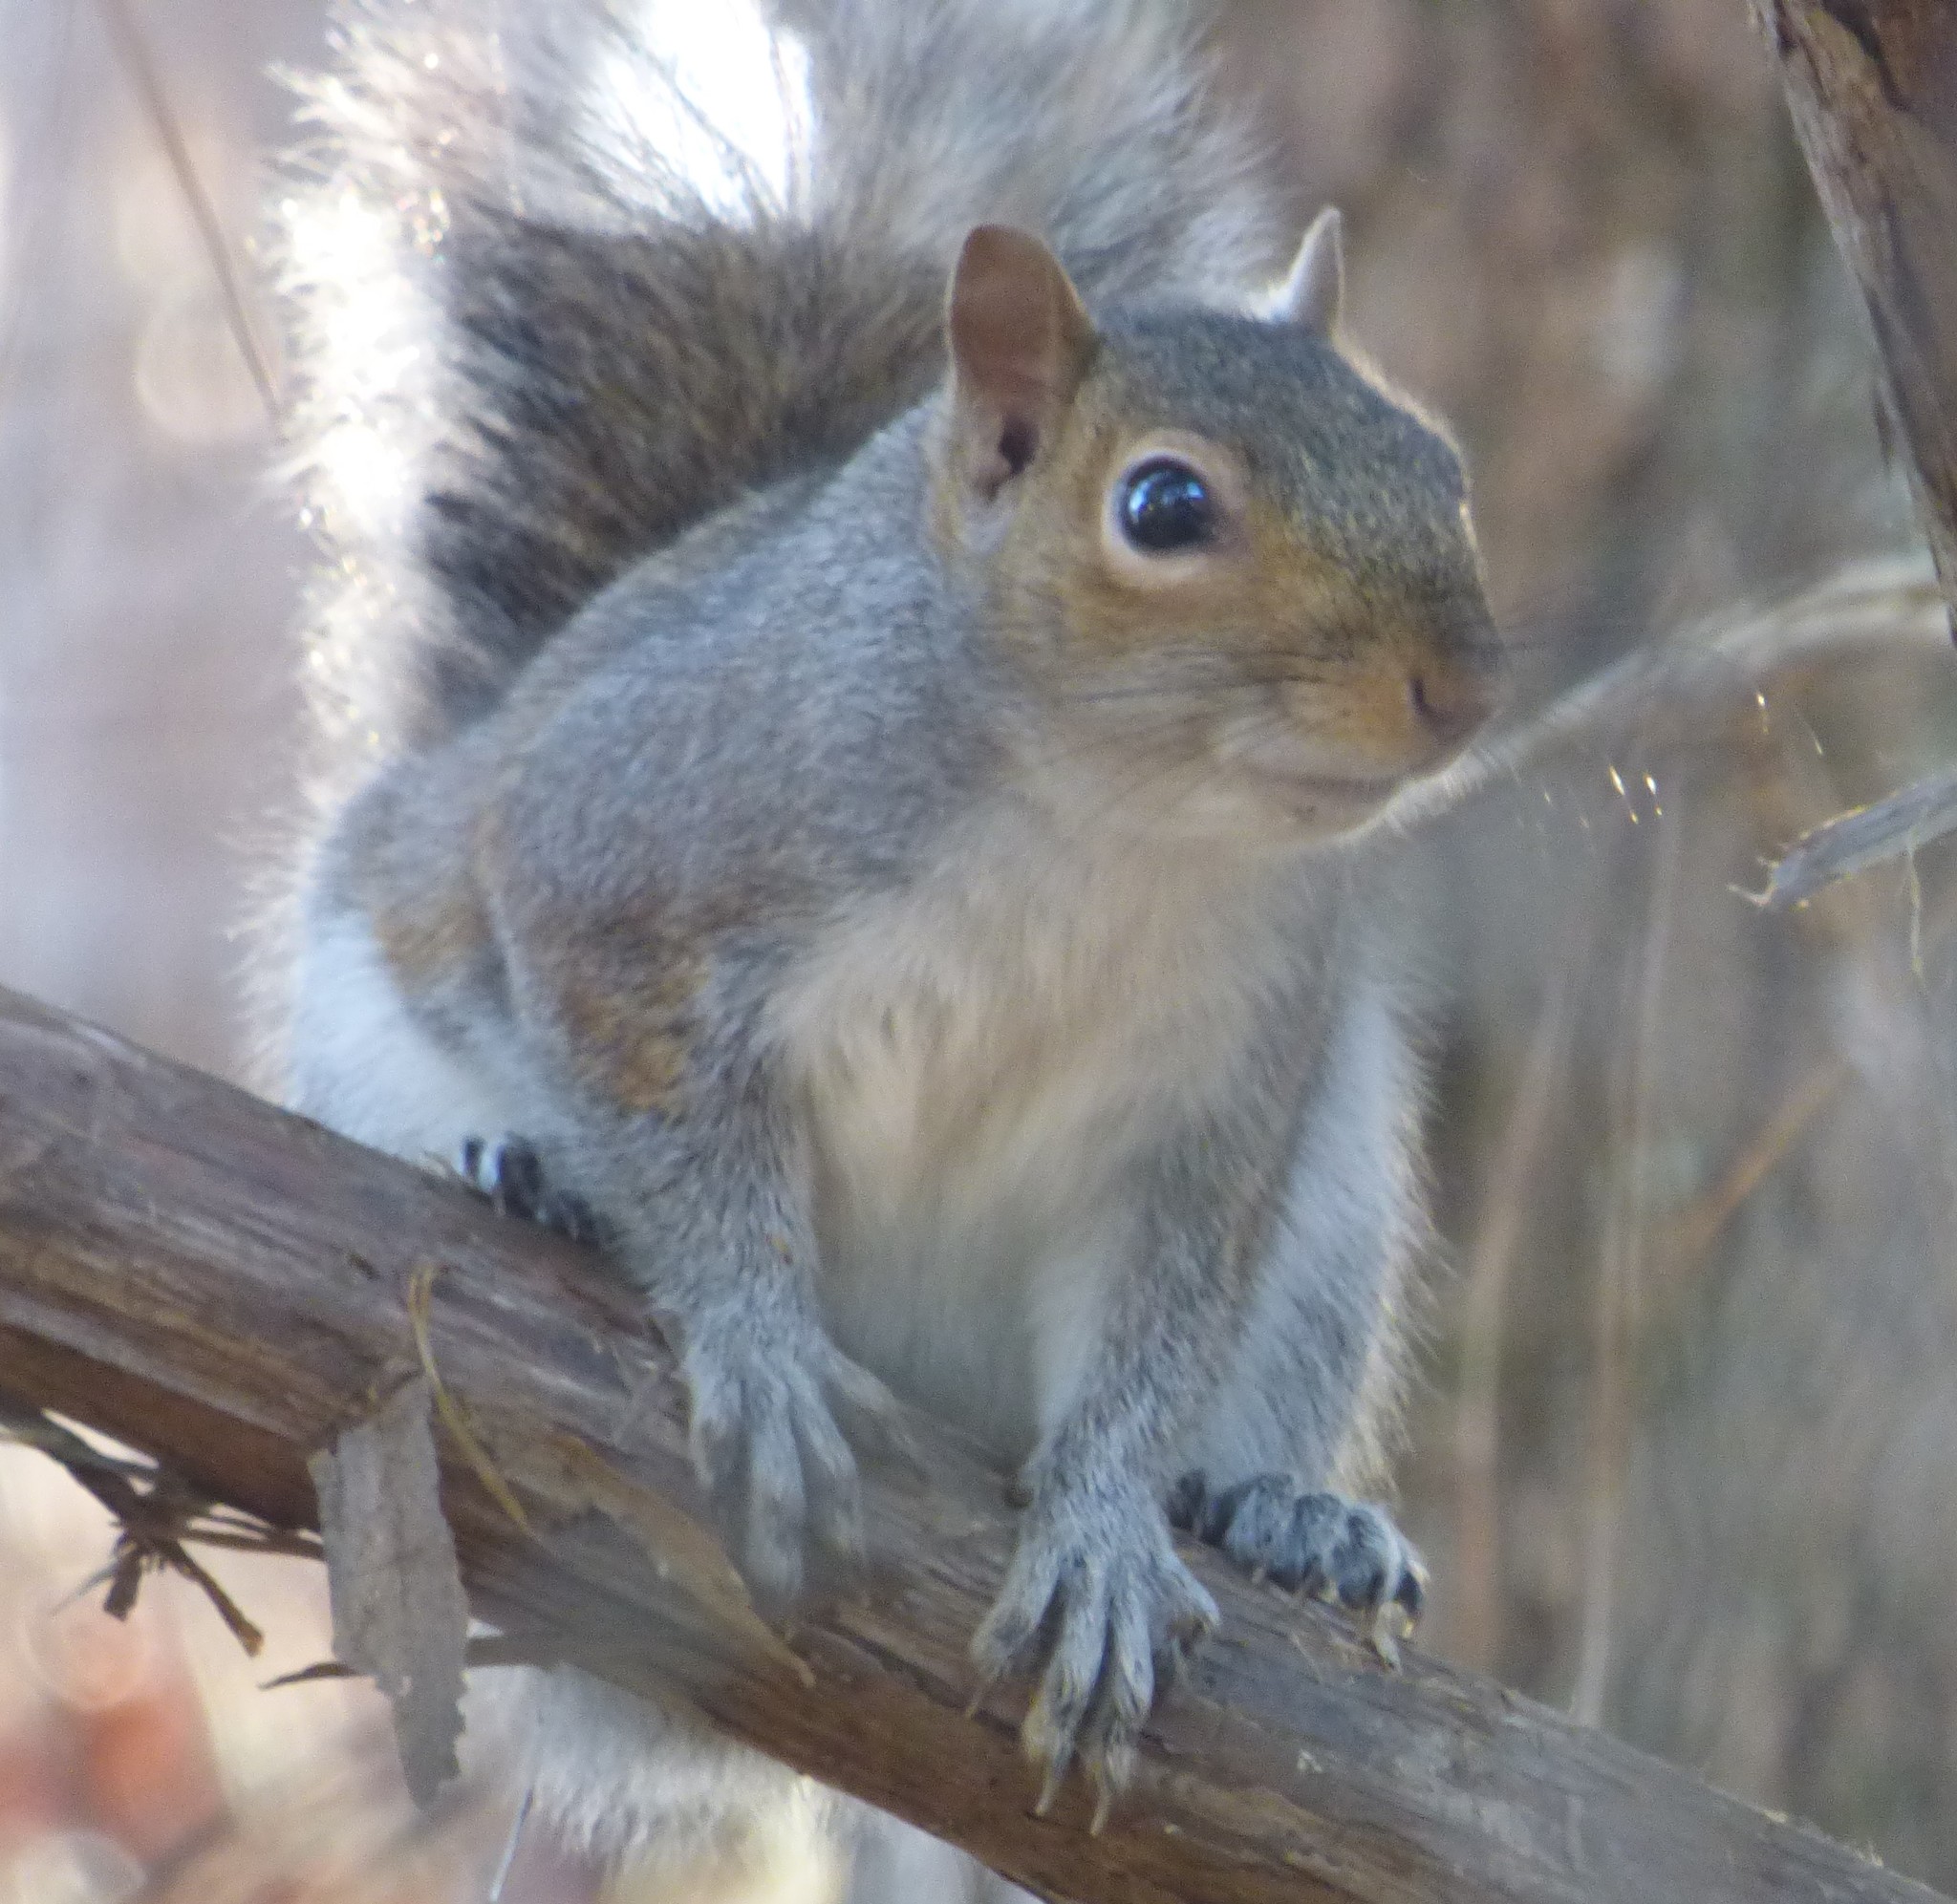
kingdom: Animalia
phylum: Chordata
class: Mammalia
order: Rodentia
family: Sciuridae
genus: Sciurus
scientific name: Sciurus carolinensis
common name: Eastern gray squirrel
